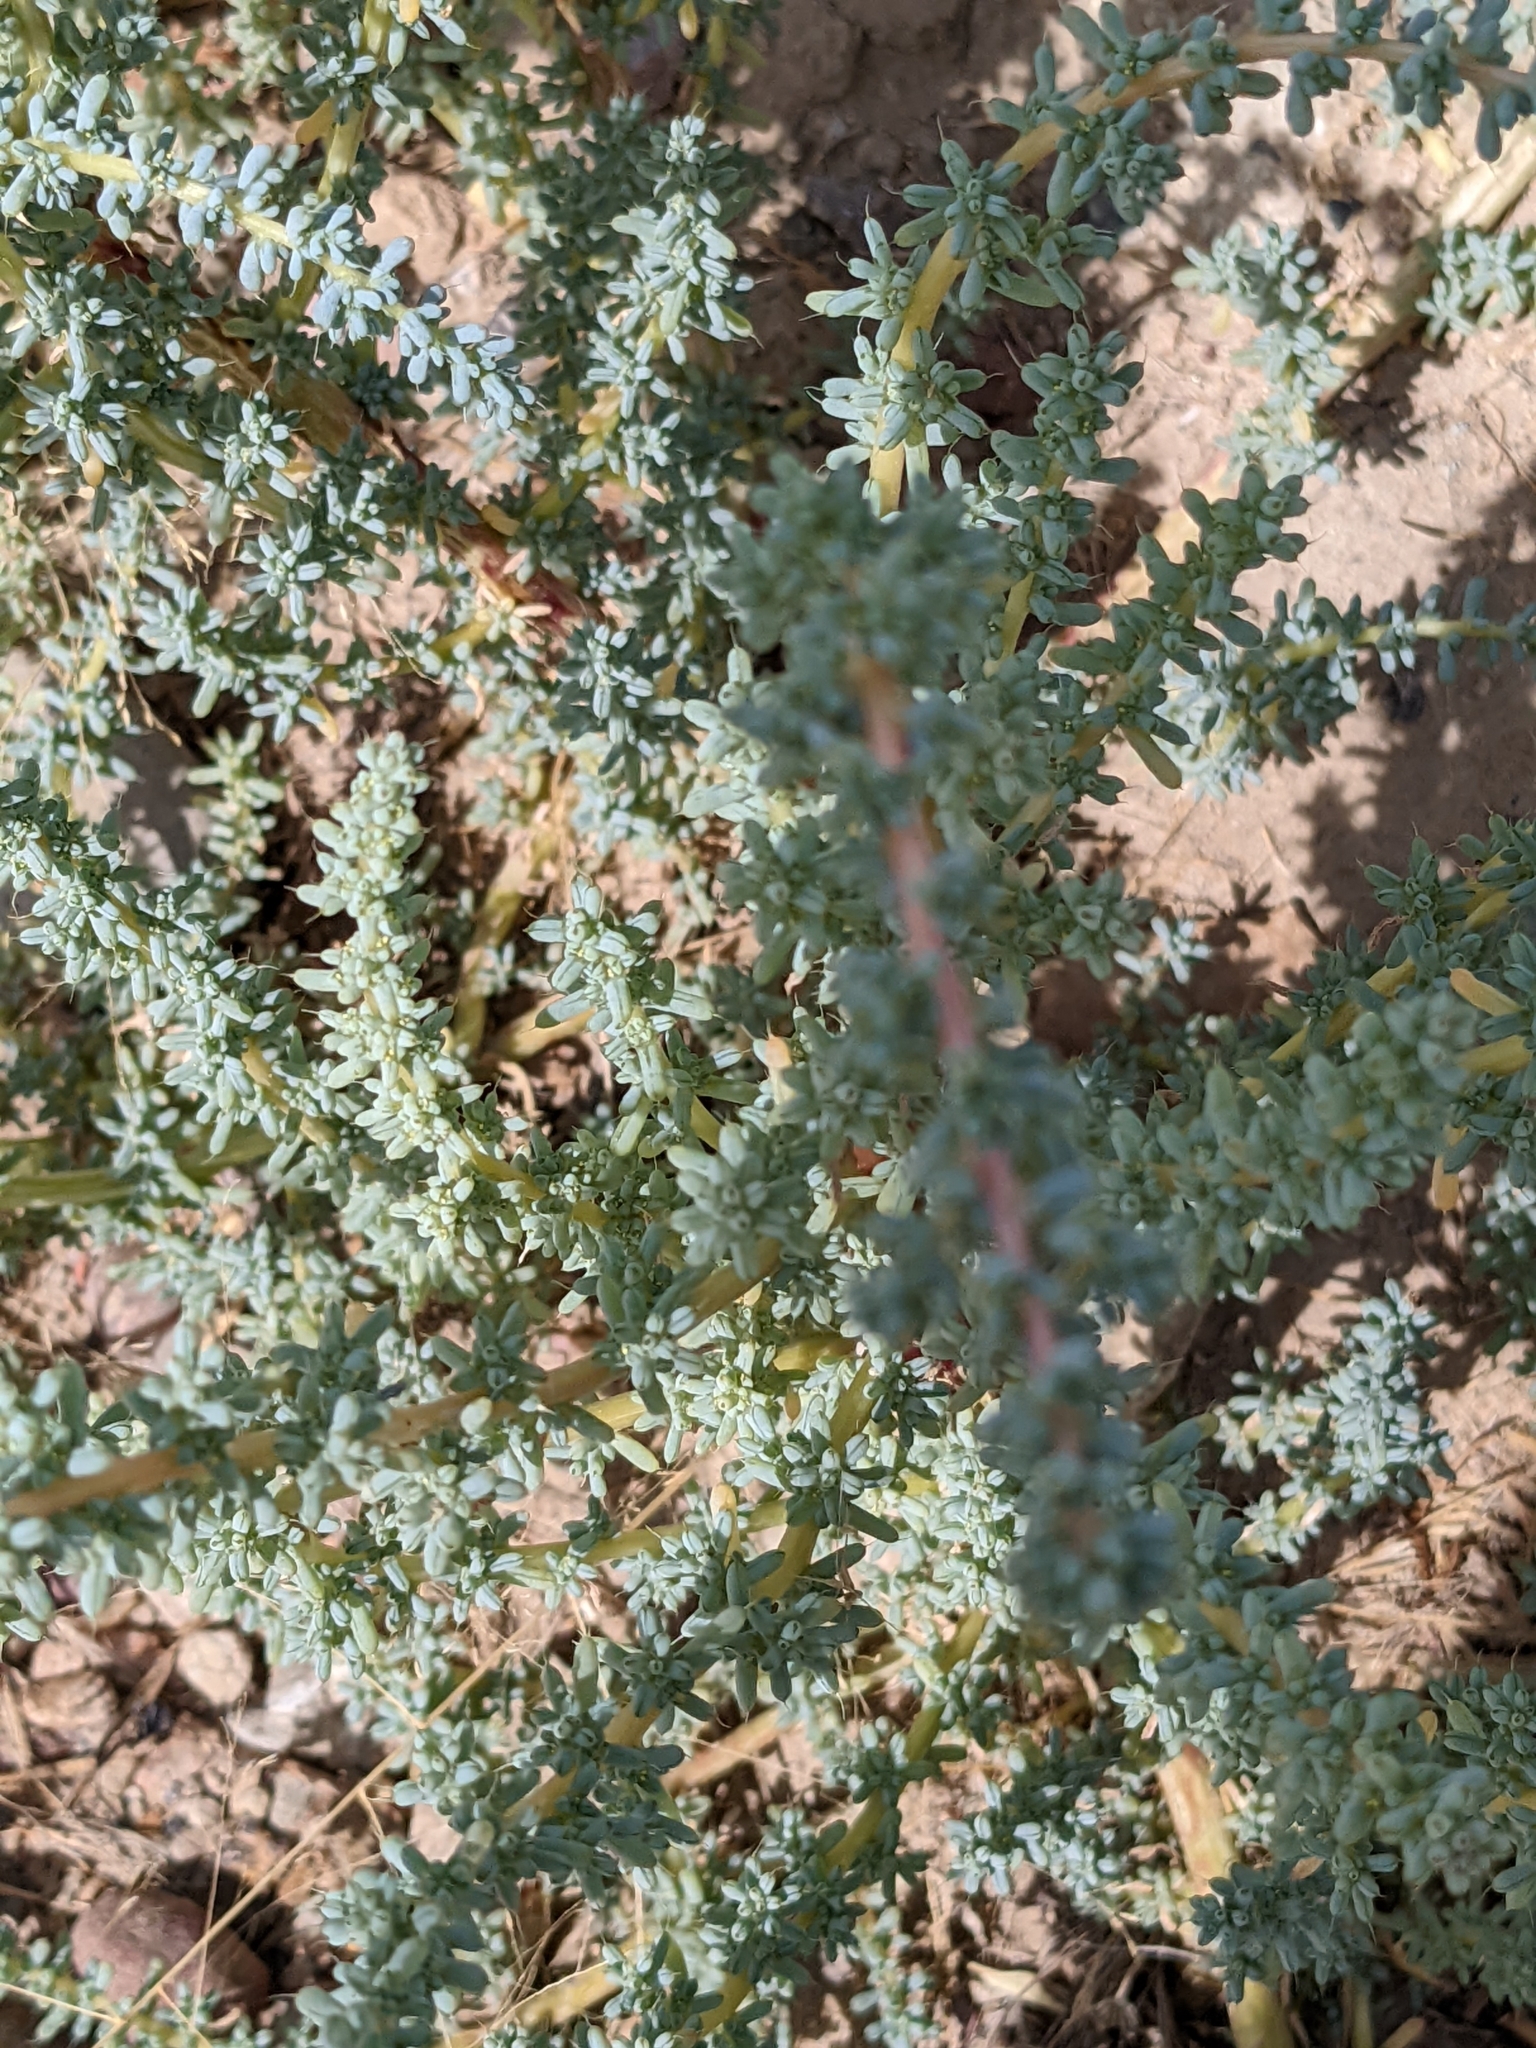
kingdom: Plantae
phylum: Tracheophyta
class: Magnoliopsida
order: Caryophyllales
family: Amaranthaceae
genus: Halogeton
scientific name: Halogeton glomeratus
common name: Saltlover
